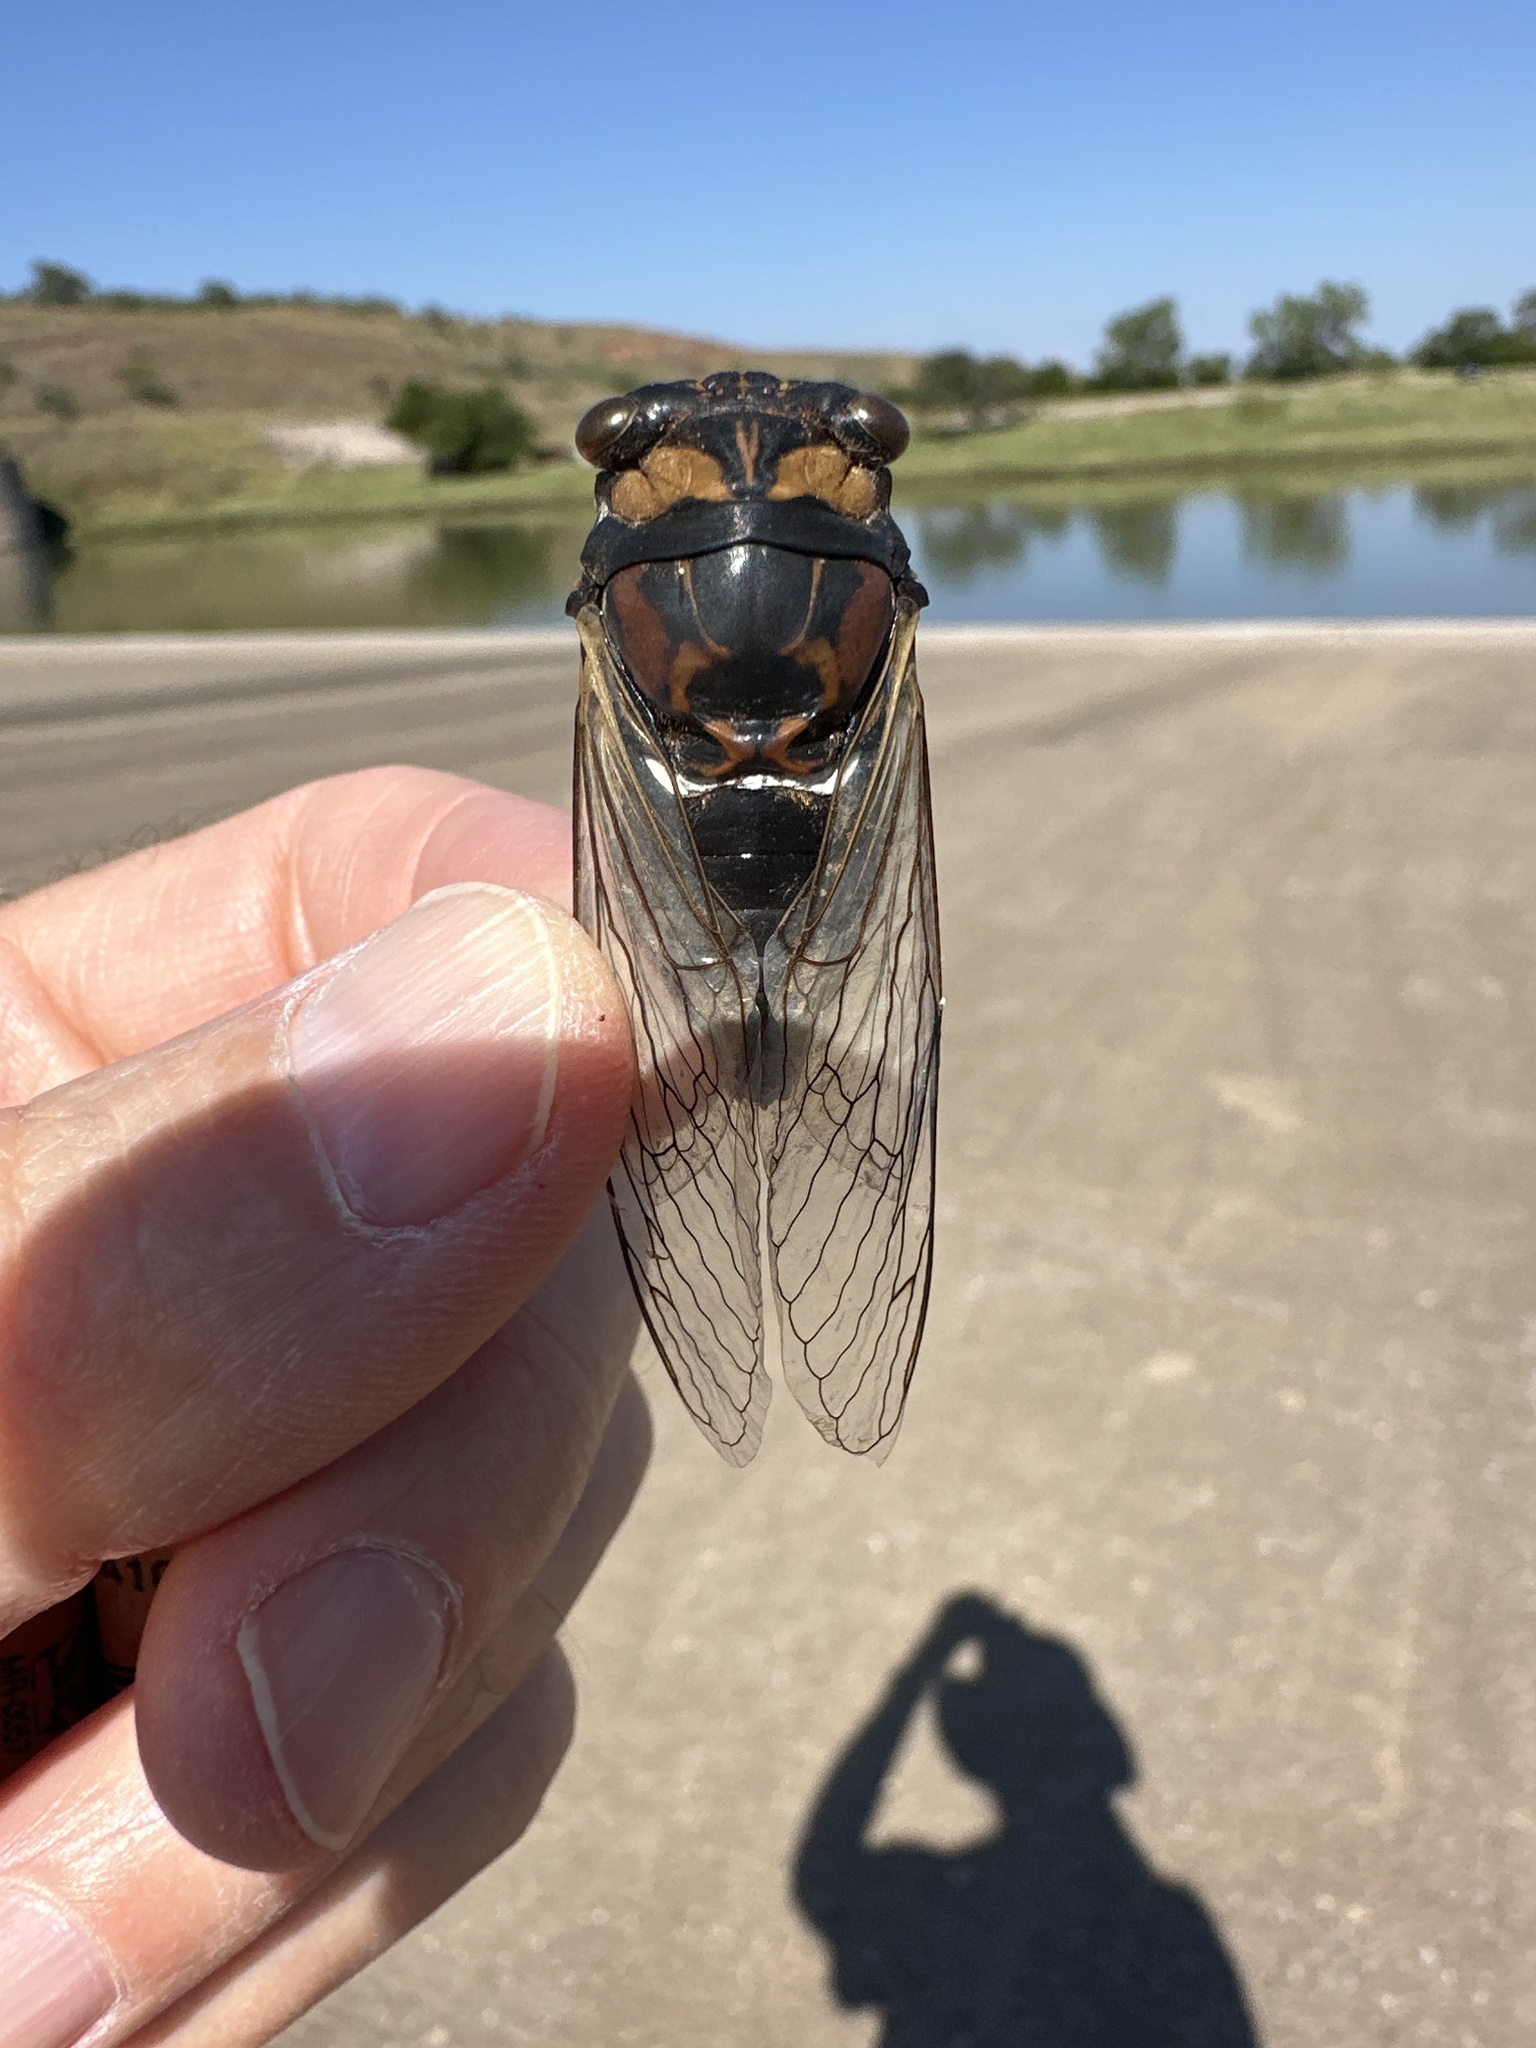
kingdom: Animalia
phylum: Arthropoda
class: Insecta
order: Hemiptera
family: Cicadidae
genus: Neotibicen
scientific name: Neotibicen lyricen
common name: Lyric cicada
